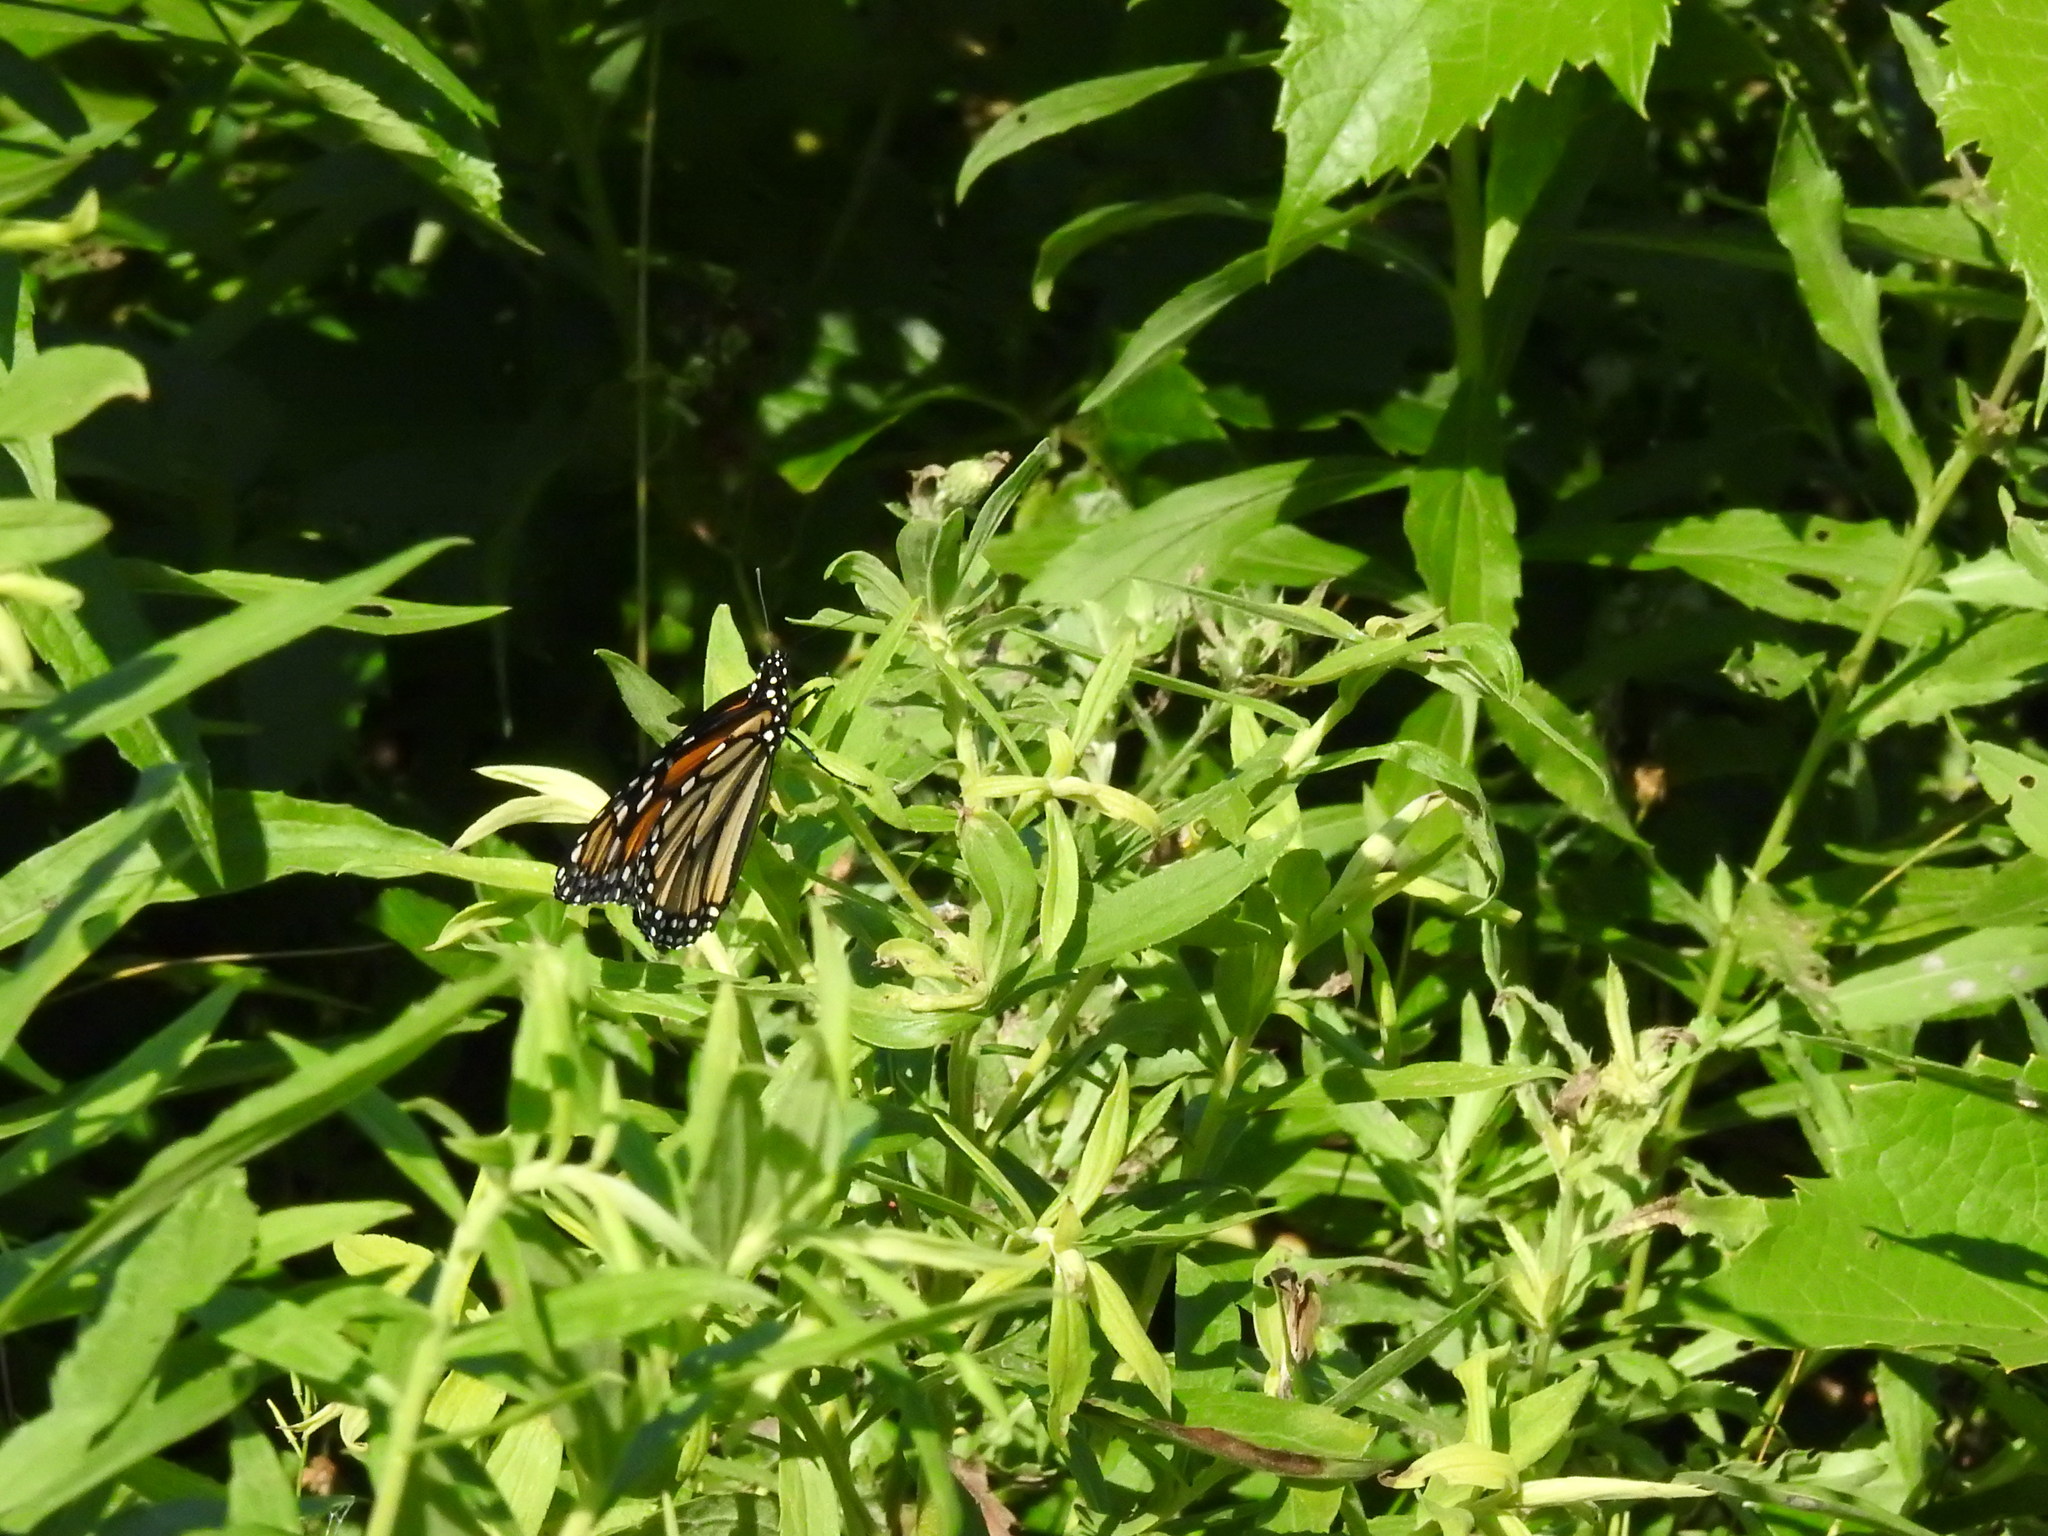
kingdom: Animalia
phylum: Arthropoda
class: Insecta
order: Lepidoptera
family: Nymphalidae
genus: Danaus
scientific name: Danaus plexippus
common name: Monarch
